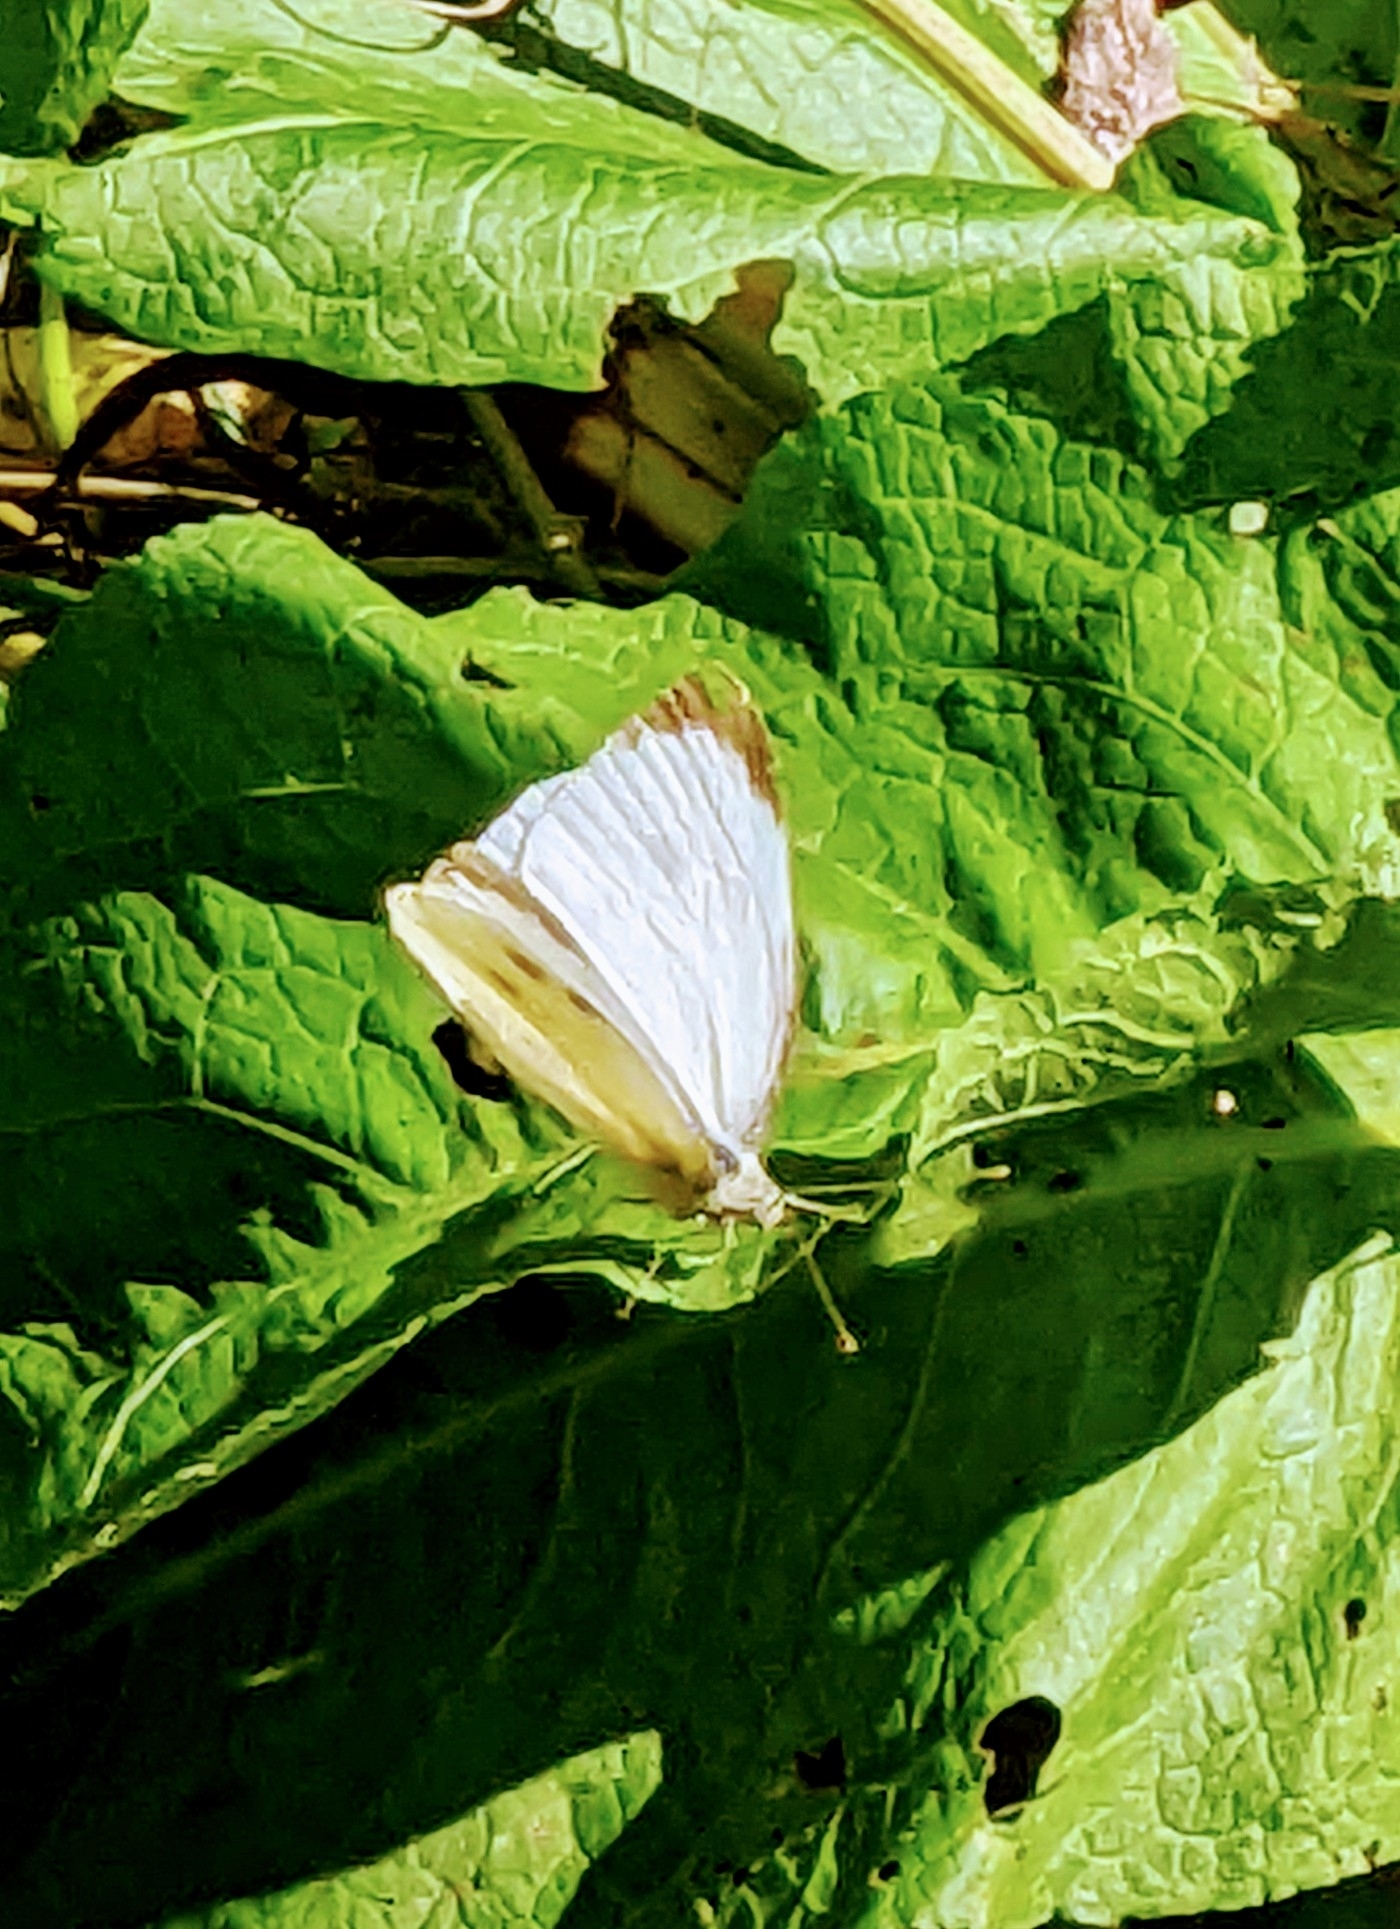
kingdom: Animalia
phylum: Arthropoda
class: Insecta
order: Lepidoptera
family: Pieridae
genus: Pieris
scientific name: Pieris brassicae
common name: Large white
